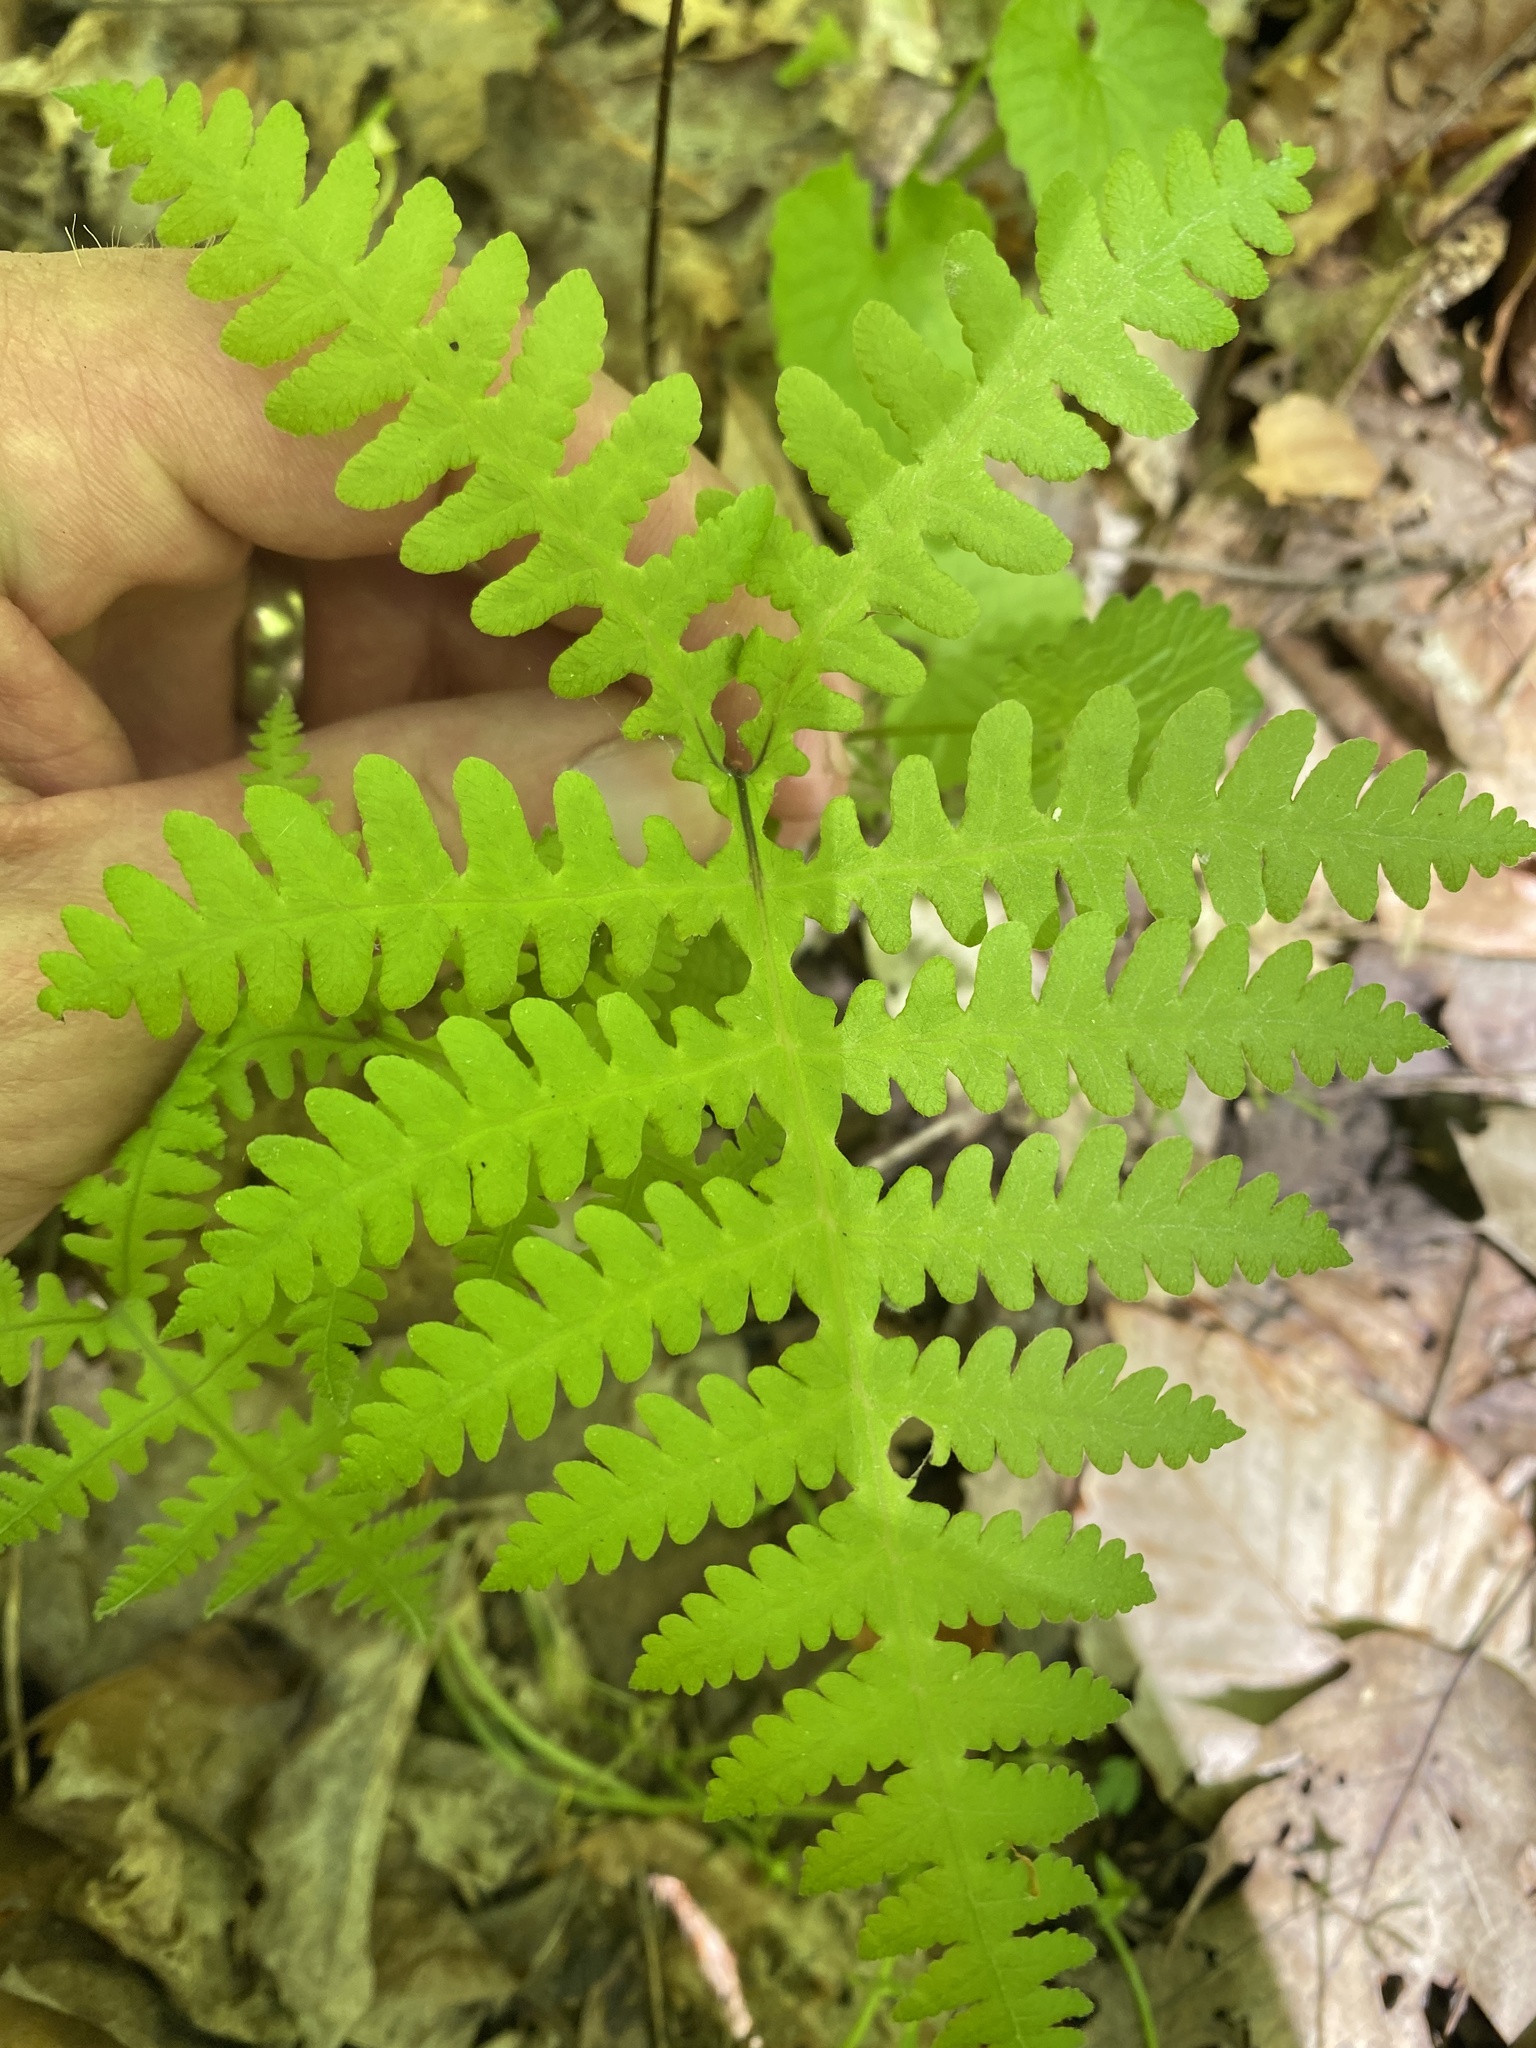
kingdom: Plantae
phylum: Tracheophyta
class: Polypodiopsida
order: Polypodiales
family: Thelypteridaceae
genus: Phegopteris
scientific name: Phegopteris hexagonoptera
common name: Broad beech fern
